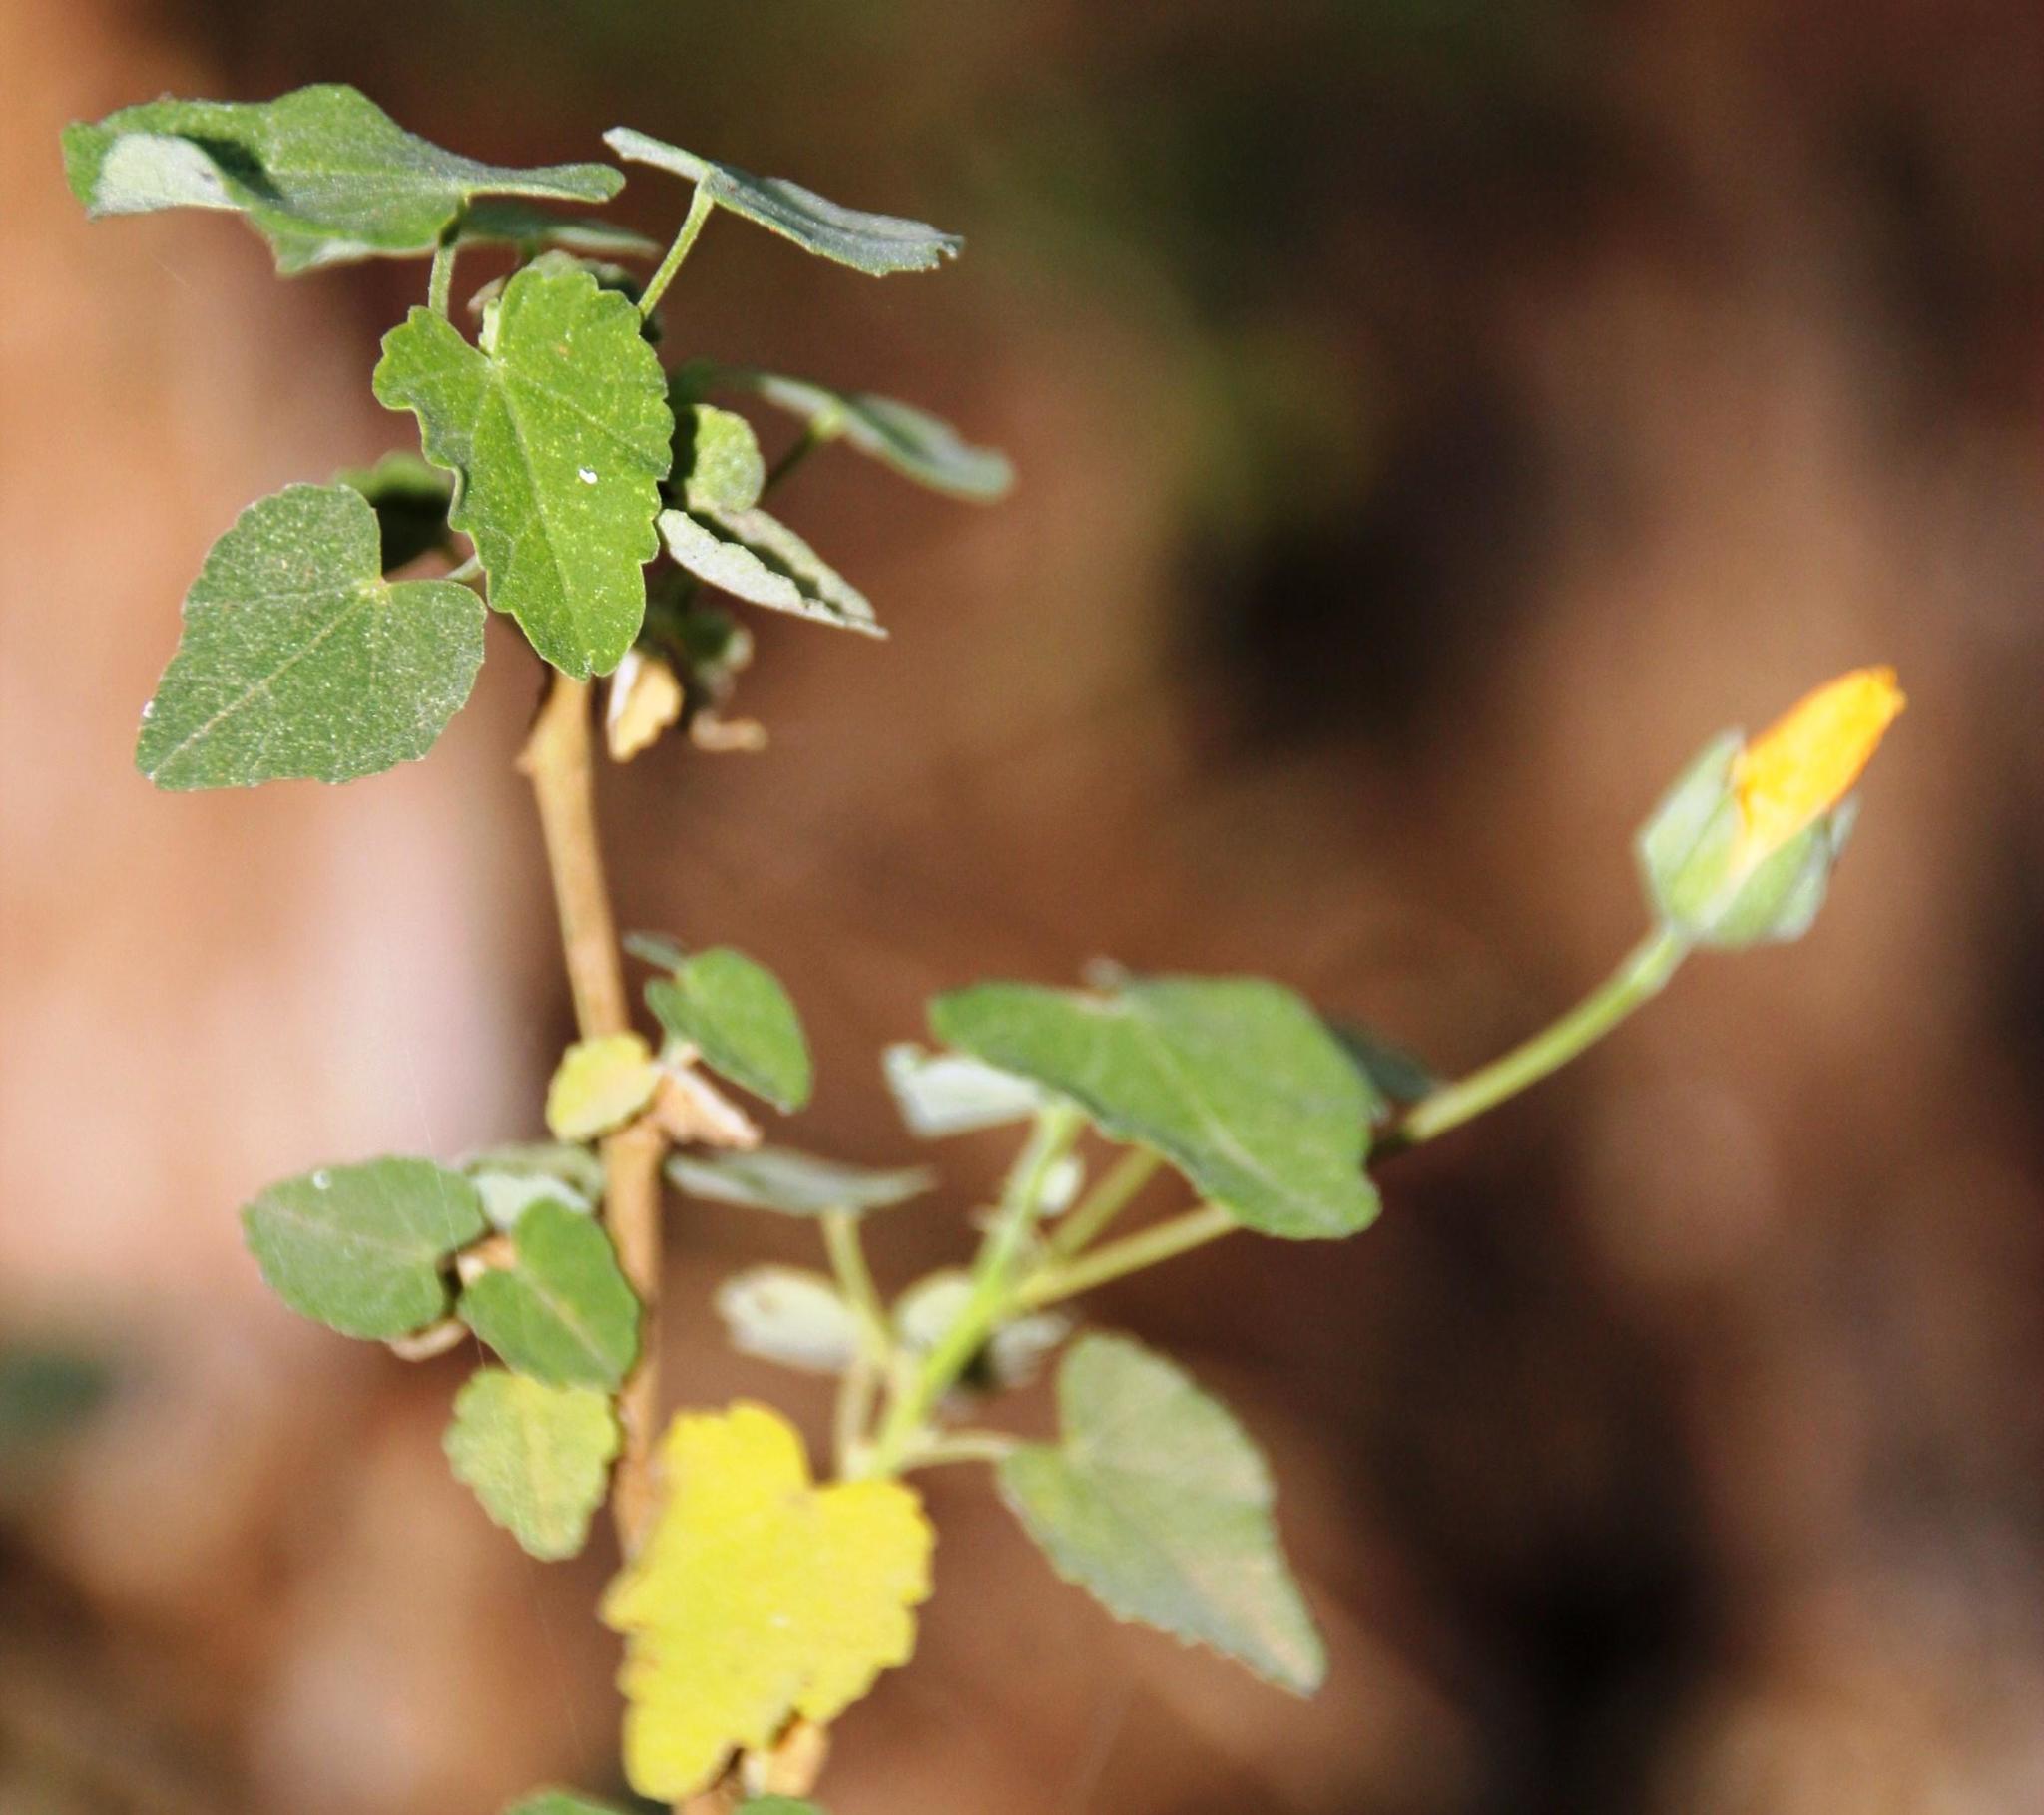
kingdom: Plantae
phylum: Tracheophyta
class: Magnoliopsida
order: Malvales
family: Malvaceae
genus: Abutilon
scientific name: Abutilon sonneratianum
